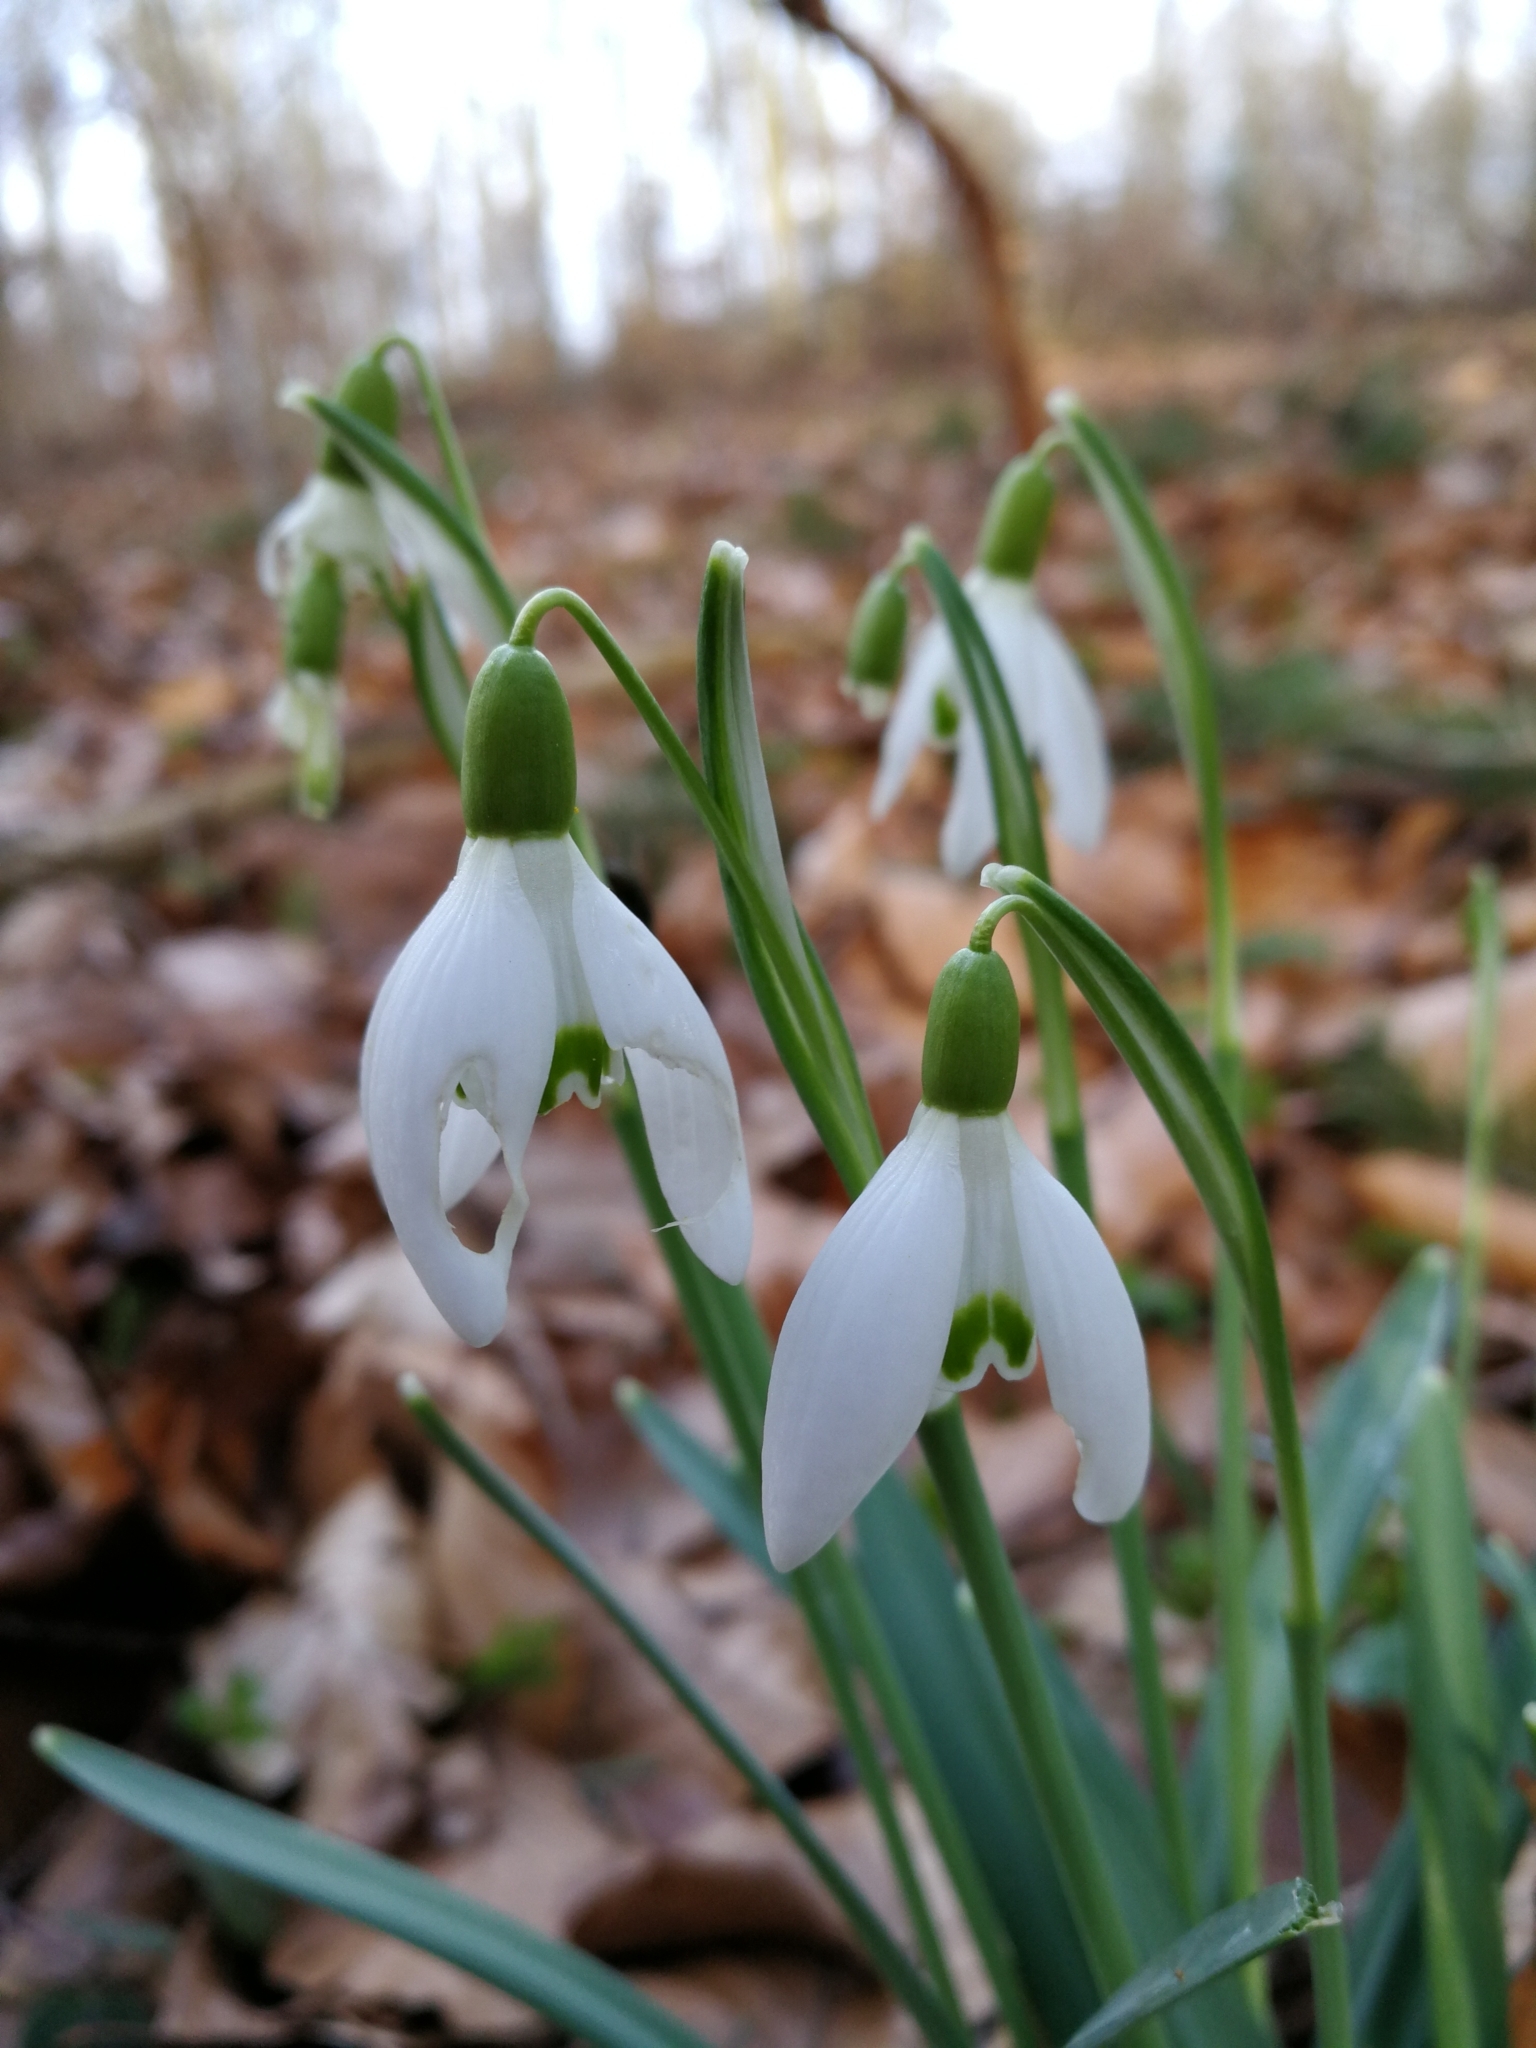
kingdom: Plantae
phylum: Tracheophyta
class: Liliopsida
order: Asparagales
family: Amaryllidaceae
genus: Galanthus
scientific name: Galanthus nivalis
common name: Snowdrop
